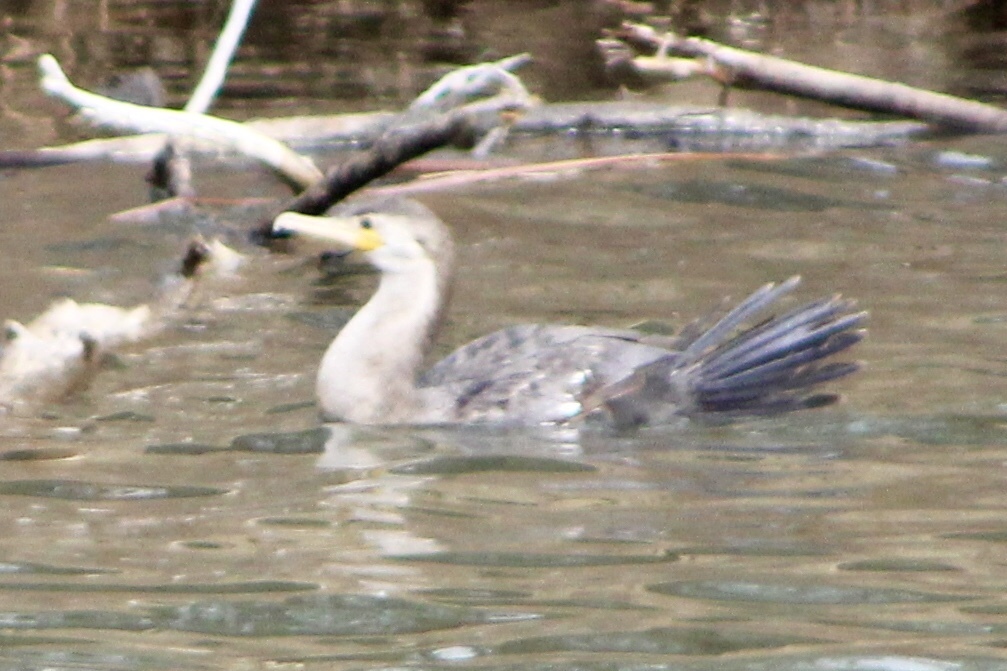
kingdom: Animalia
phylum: Chordata
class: Aves
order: Suliformes
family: Phalacrocoracidae
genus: Phalacrocorax
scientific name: Phalacrocorax auritus
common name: Double-crested cormorant
